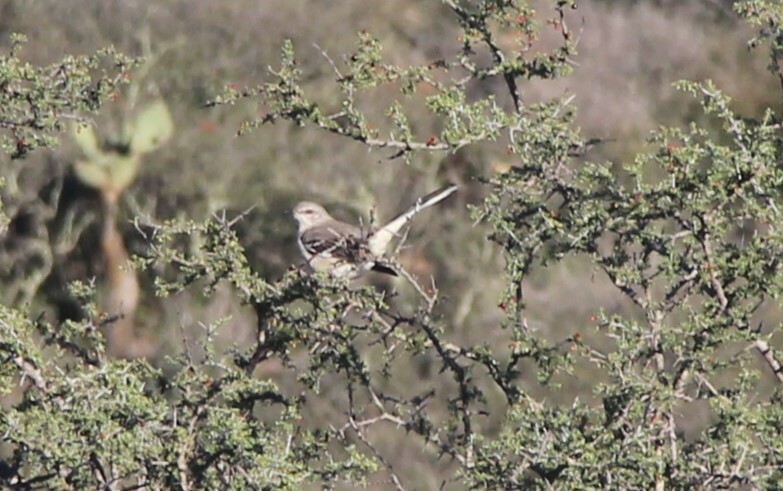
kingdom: Animalia
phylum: Chordata
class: Aves
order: Passeriformes
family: Mimidae
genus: Mimus
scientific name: Mimus polyglottos
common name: Northern mockingbird
